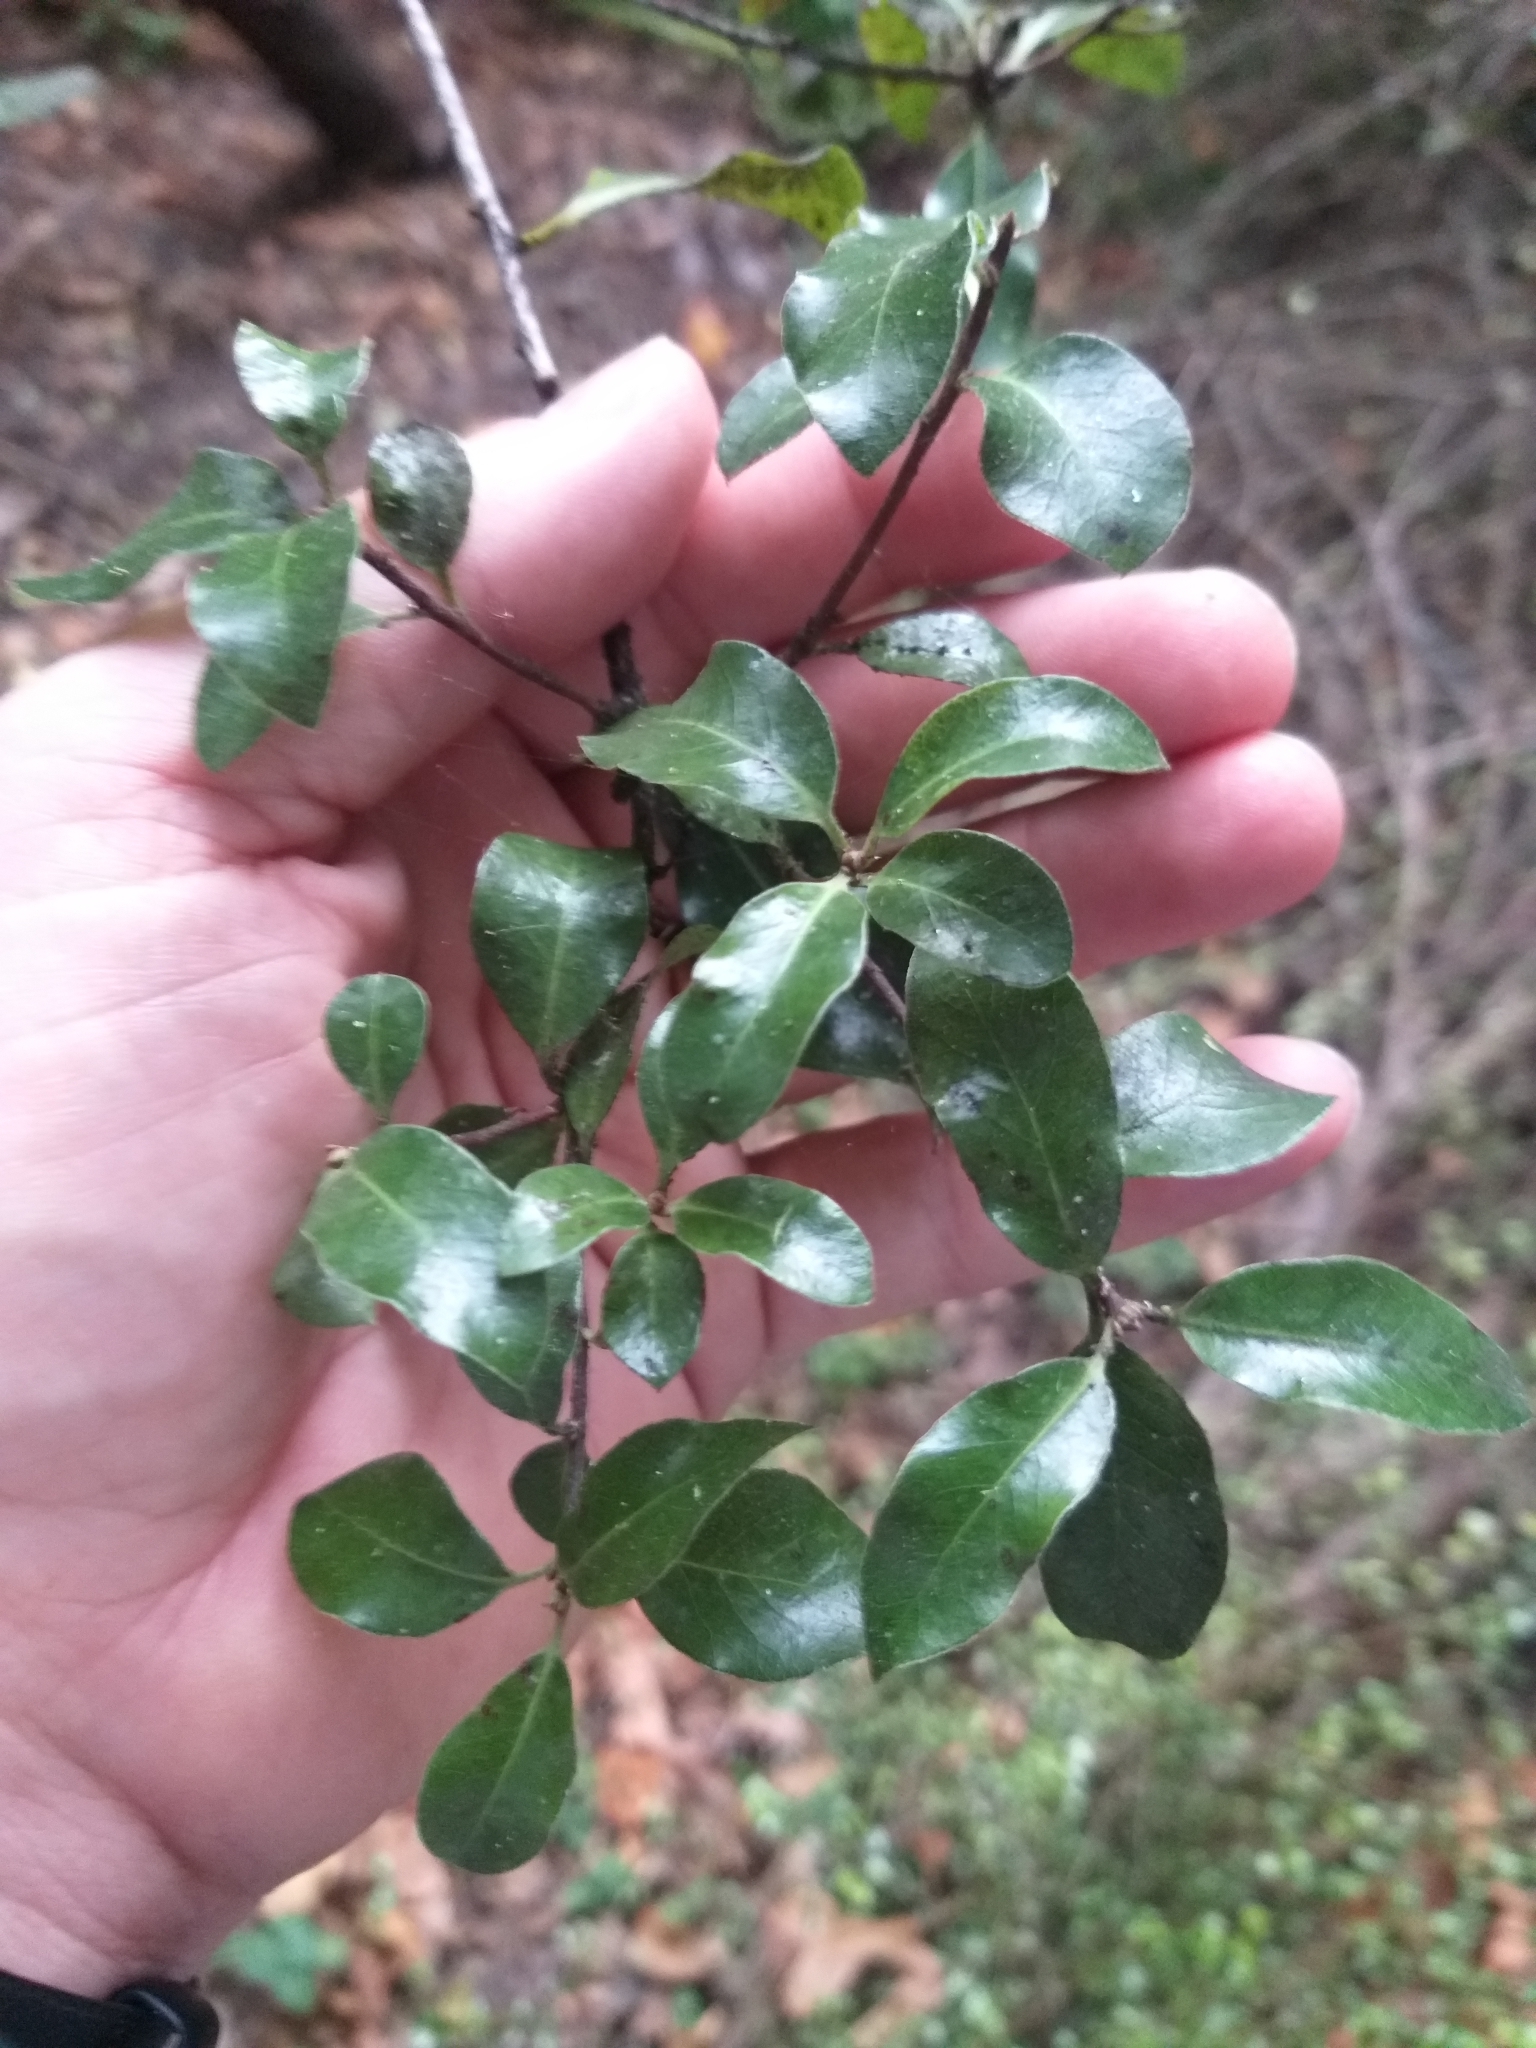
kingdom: Plantae
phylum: Tracheophyta
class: Magnoliopsida
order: Apiales
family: Pittosporaceae
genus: Pittosporum
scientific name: Pittosporum tenuifolium
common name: Kohuhu
